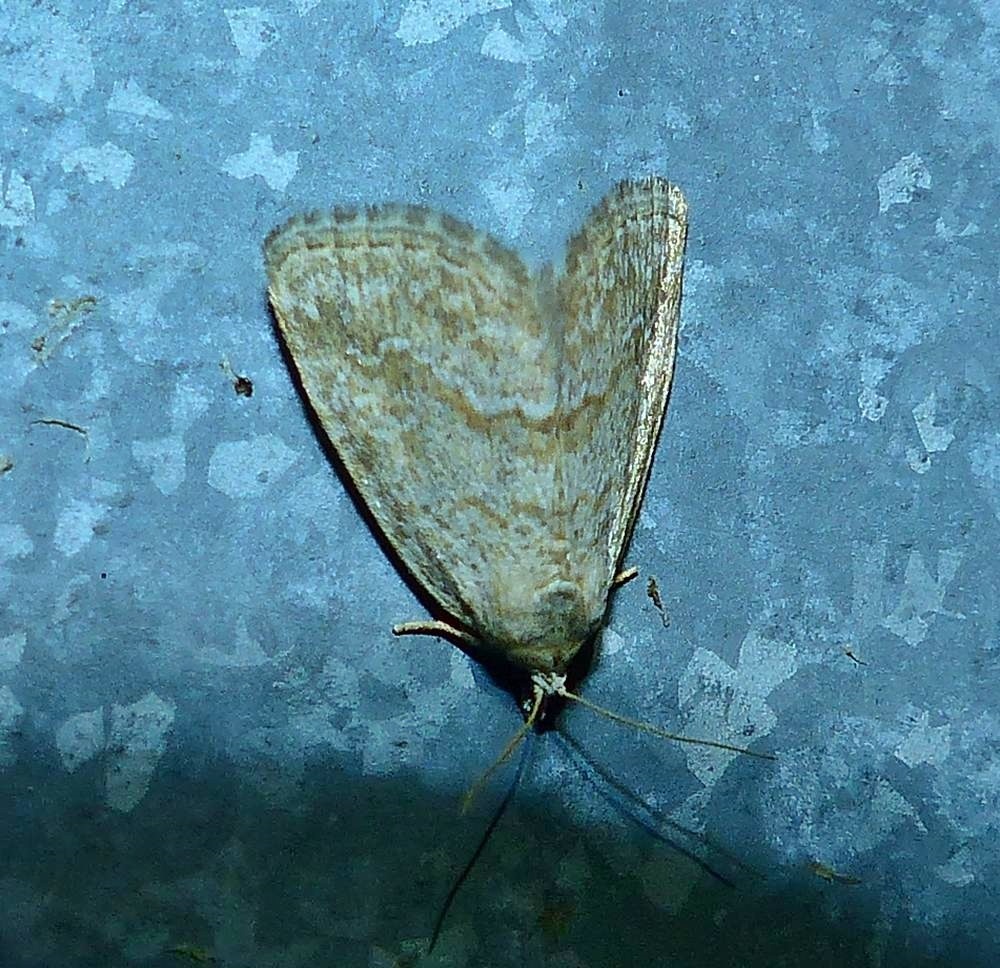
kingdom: Animalia
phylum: Arthropoda
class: Insecta
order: Lepidoptera
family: Noctuidae
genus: Protodeltote
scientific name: Protodeltote albidula
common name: Pale glyph
